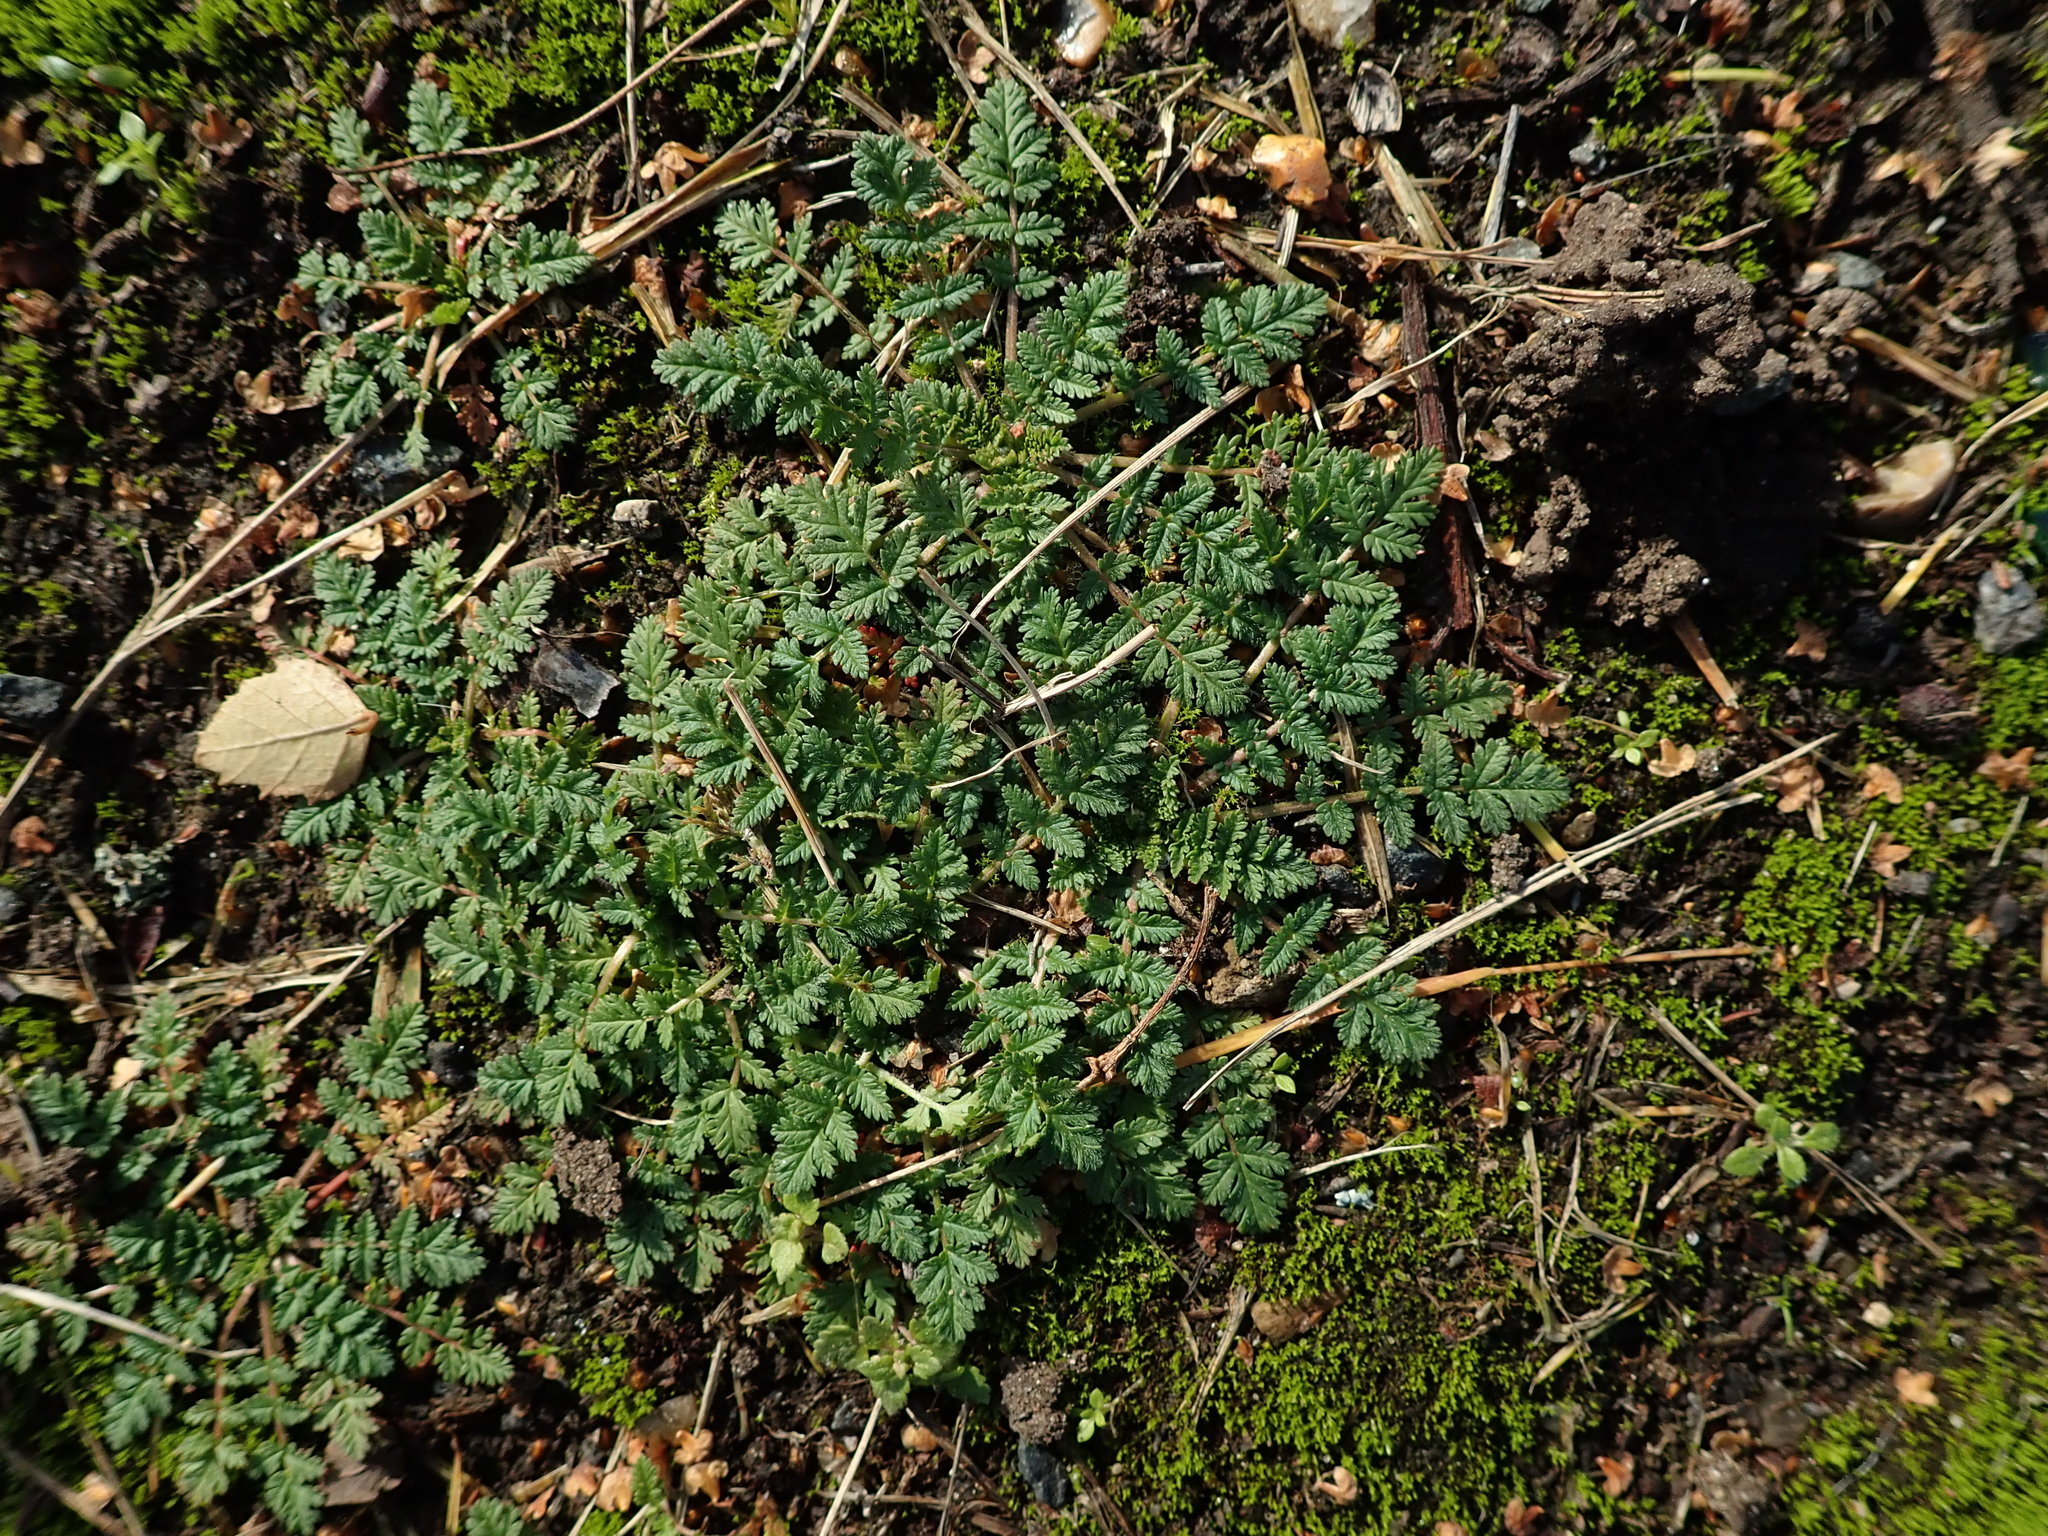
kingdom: Plantae
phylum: Tracheophyta
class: Magnoliopsida
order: Geraniales
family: Geraniaceae
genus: Erodium
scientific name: Erodium cicutarium
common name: Common stork's-bill
